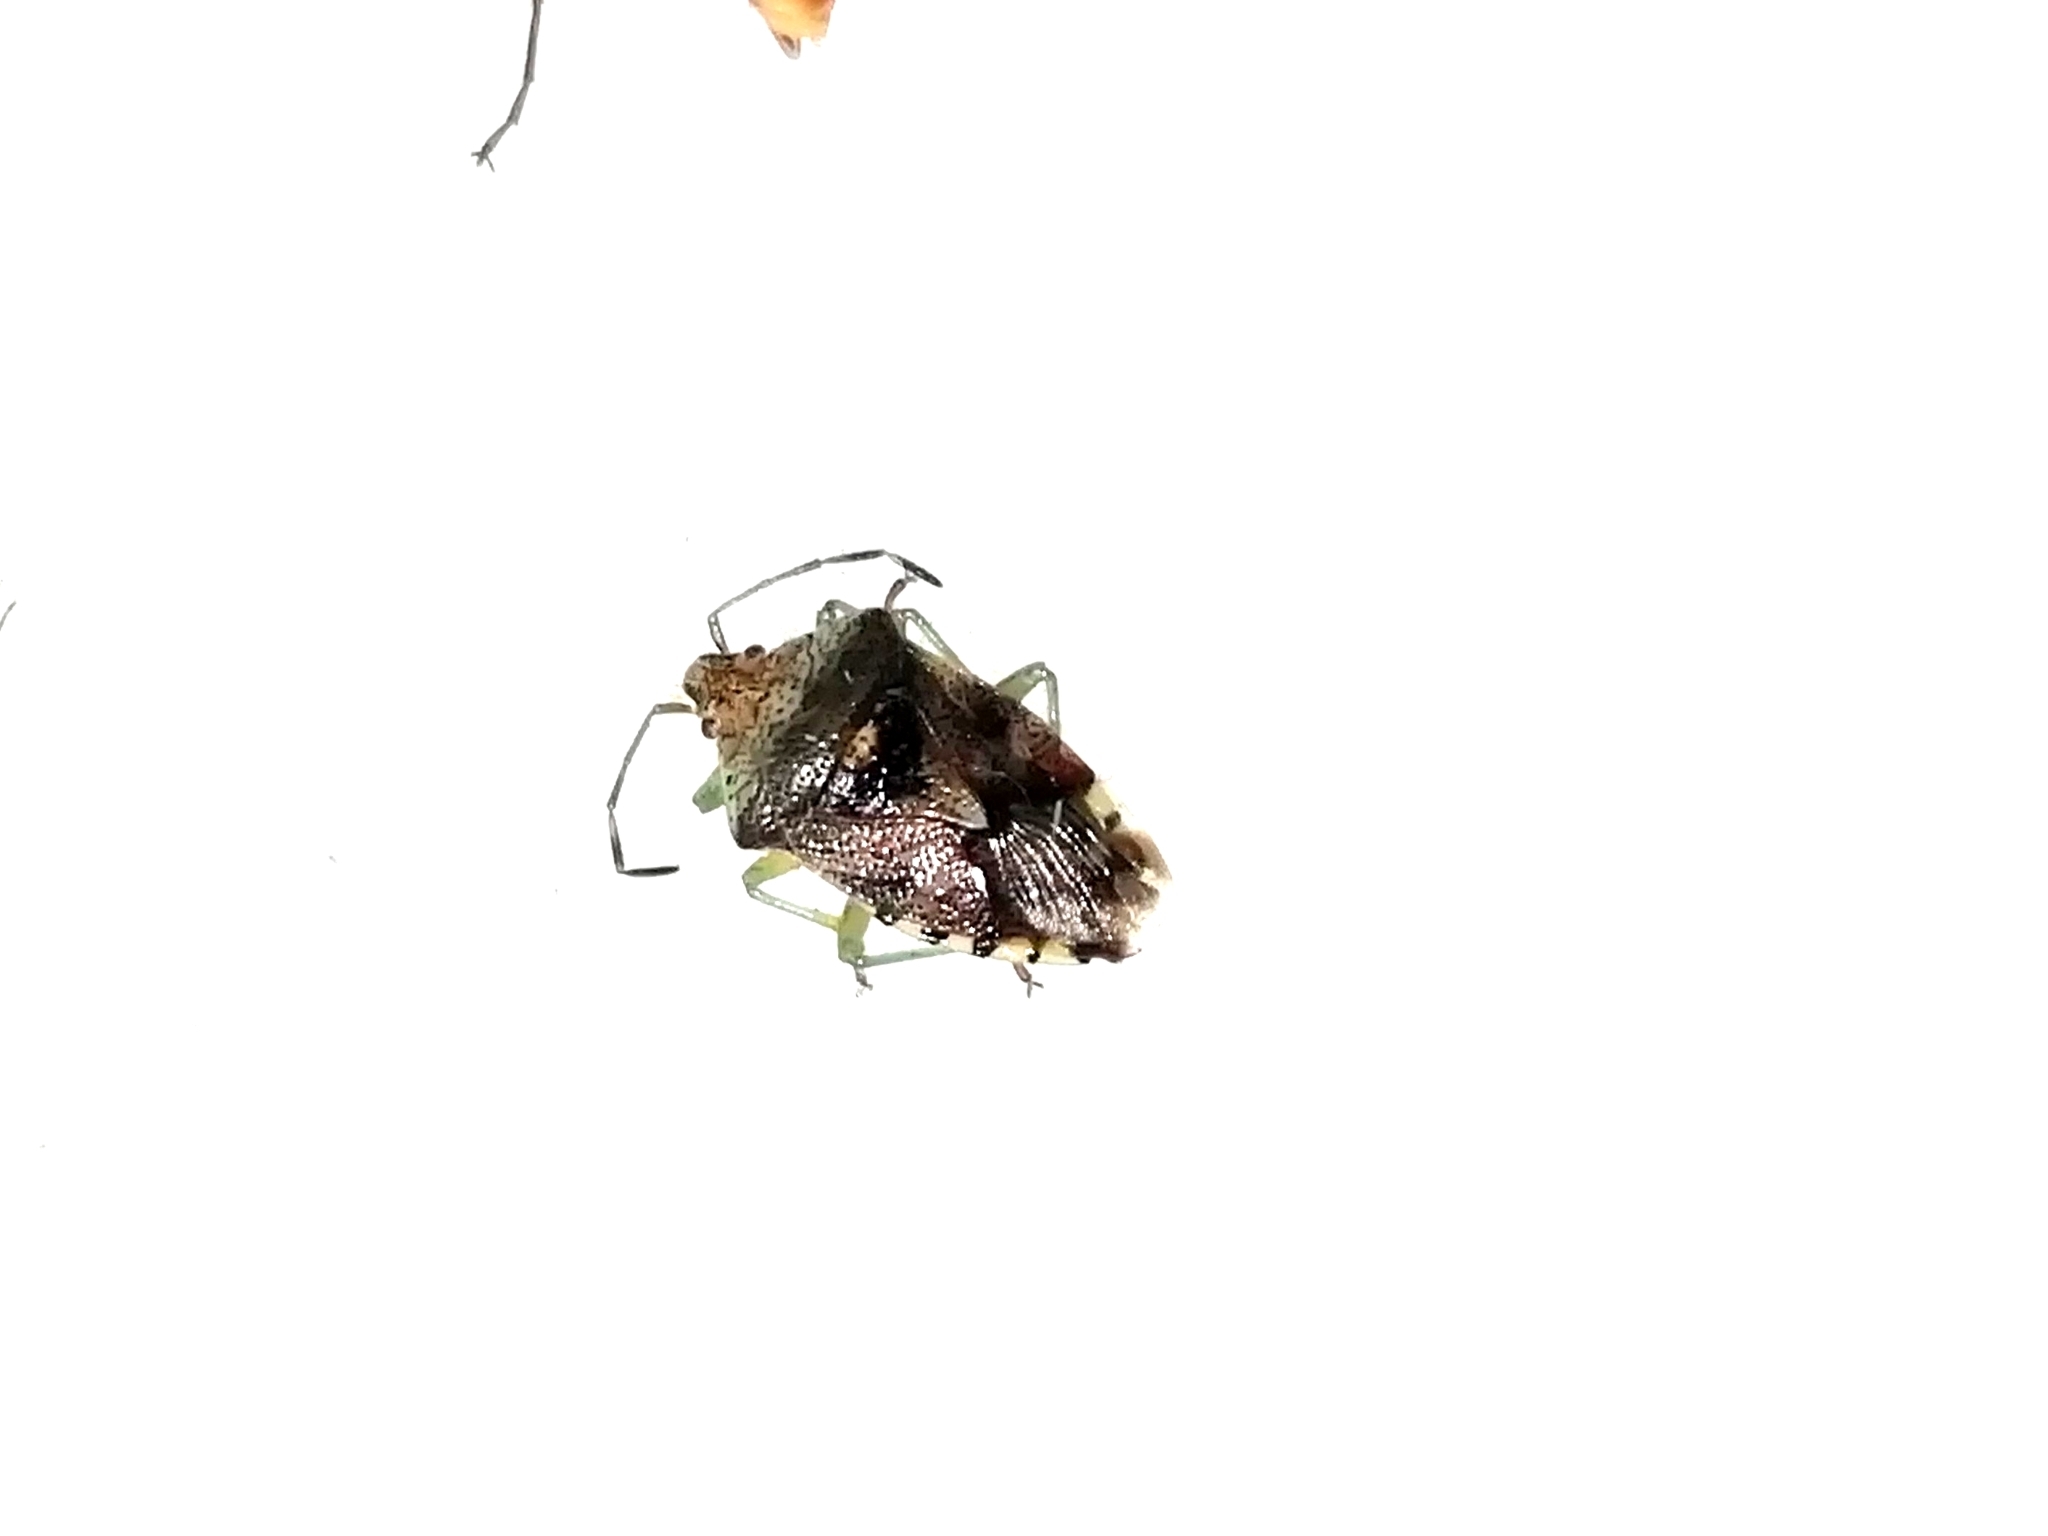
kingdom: Animalia
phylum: Arthropoda
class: Insecta
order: Hemiptera
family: Acanthosomatidae
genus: Elasmucha
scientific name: Elasmucha grisea
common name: Parent bug
